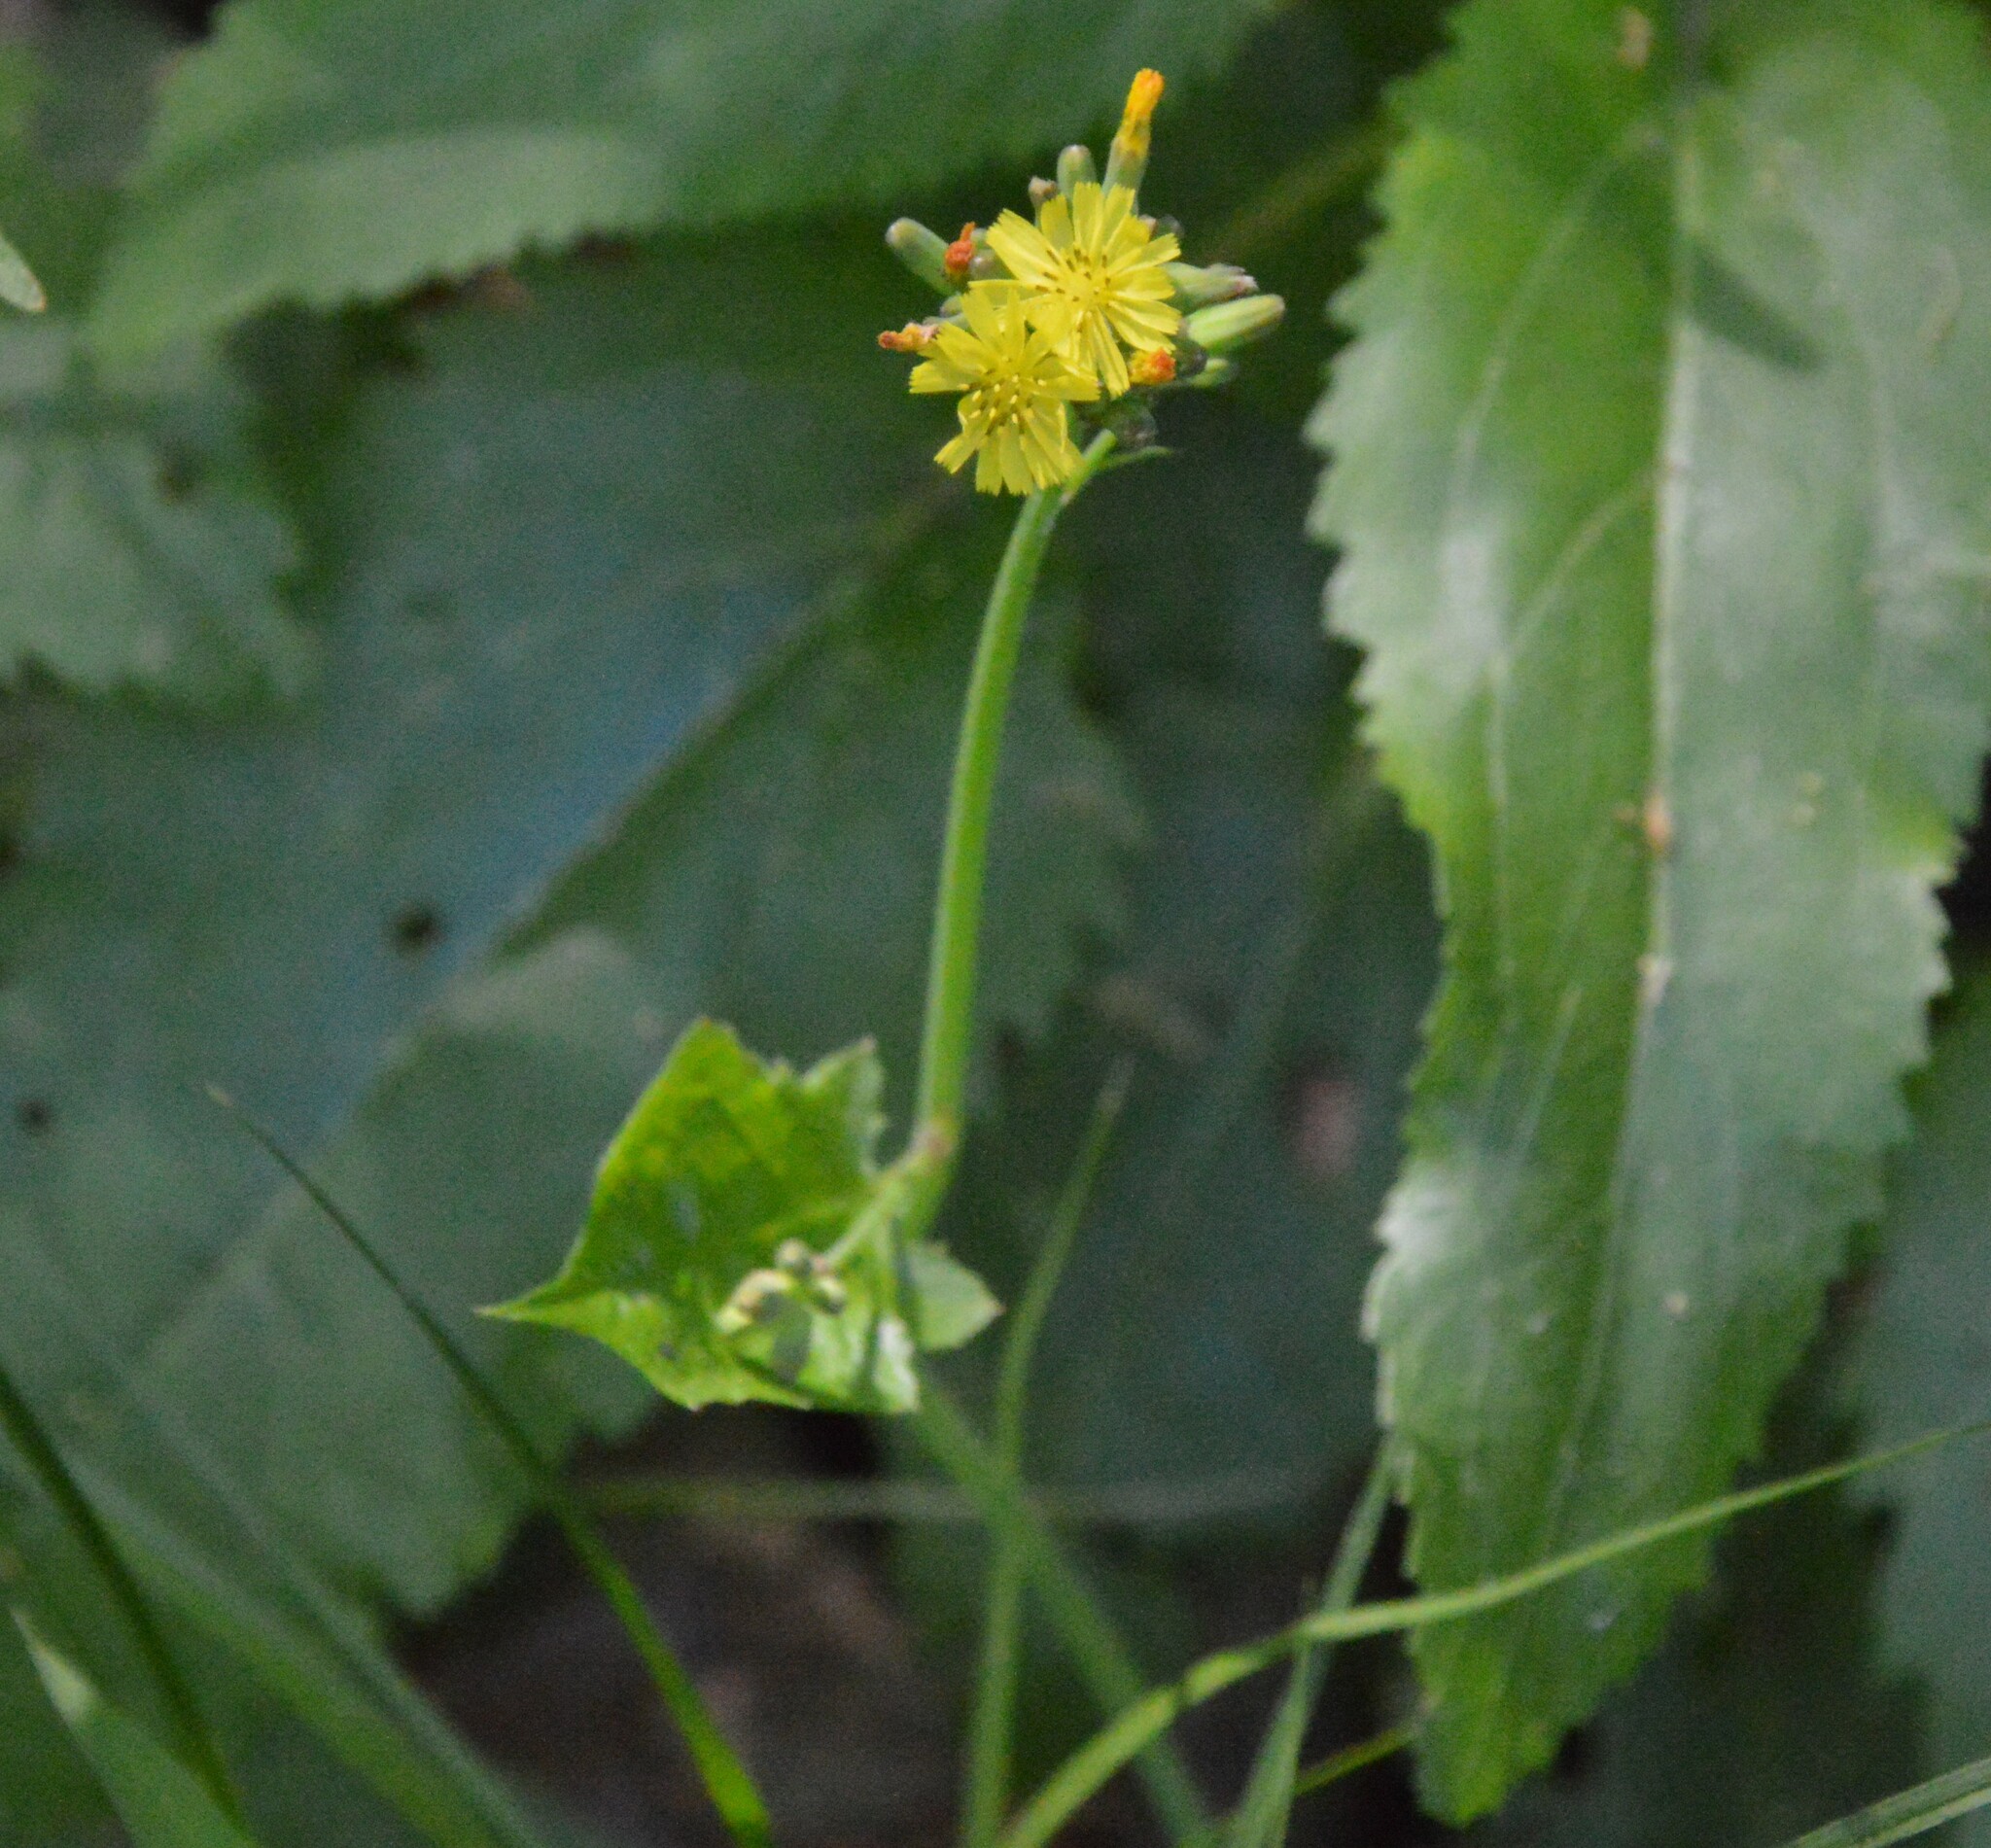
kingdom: Plantae
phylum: Tracheophyta
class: Magnoliopsida
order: Asterales
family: Asteraceae
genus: Youngia
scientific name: Youngia japonica
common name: Oriental false hawksbeard
